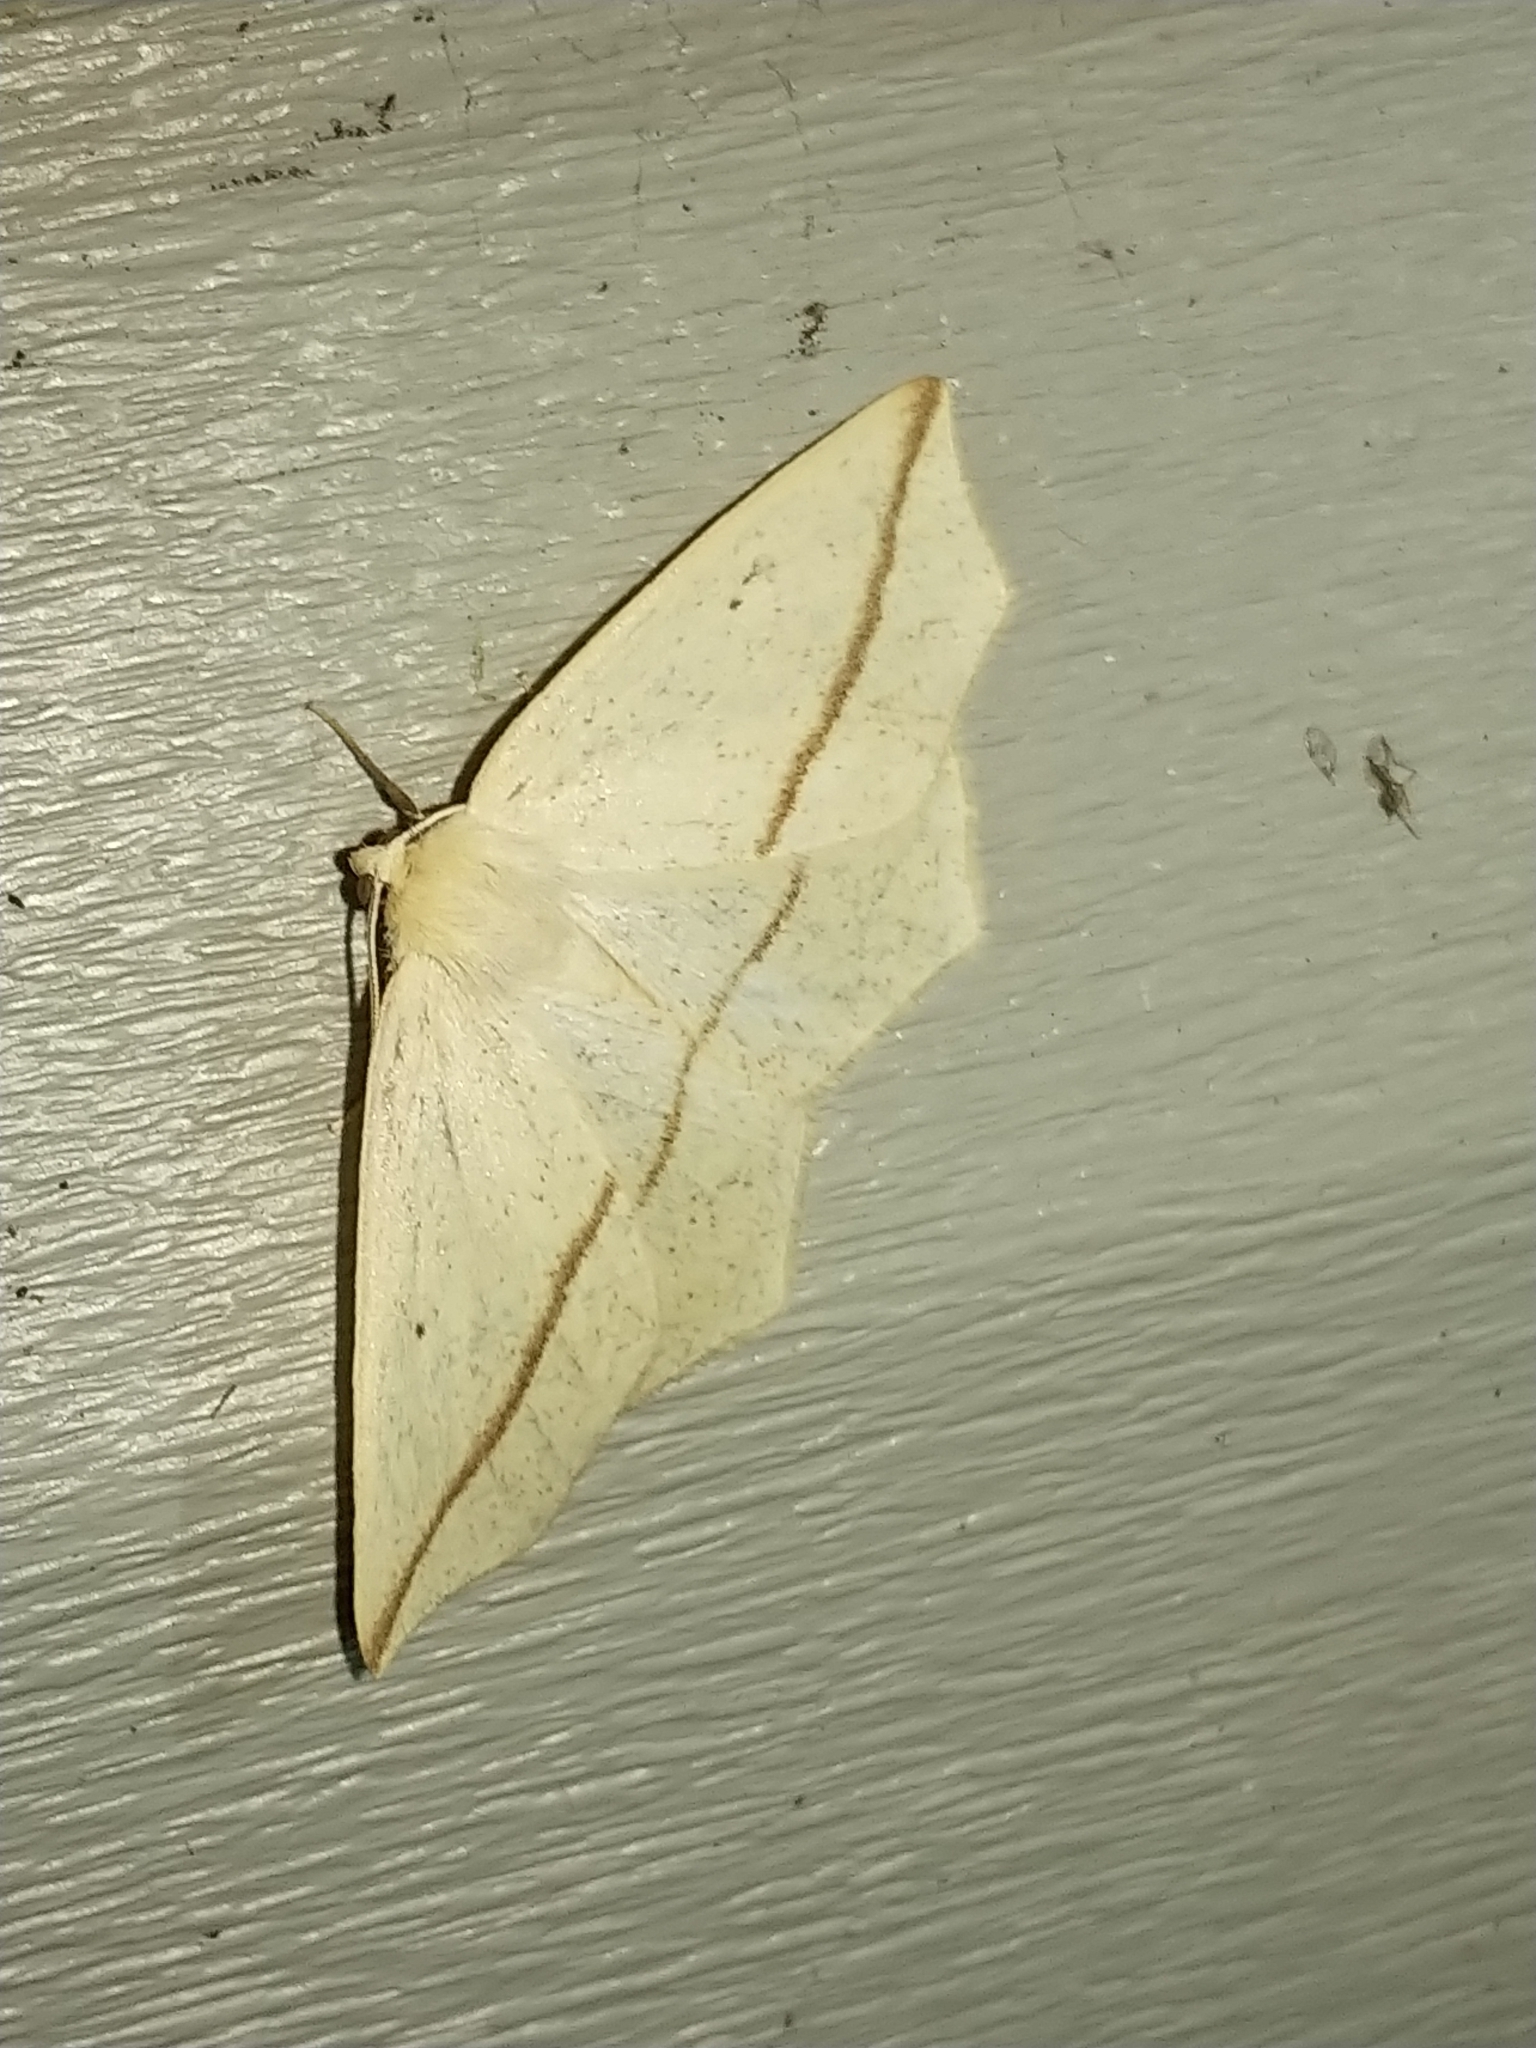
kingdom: Animalia
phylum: Arthropoda
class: Insecta
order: Lepidoptera
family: Geometridae
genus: Tetracis
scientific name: Tetracis crocallata
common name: Yellow slant-line
